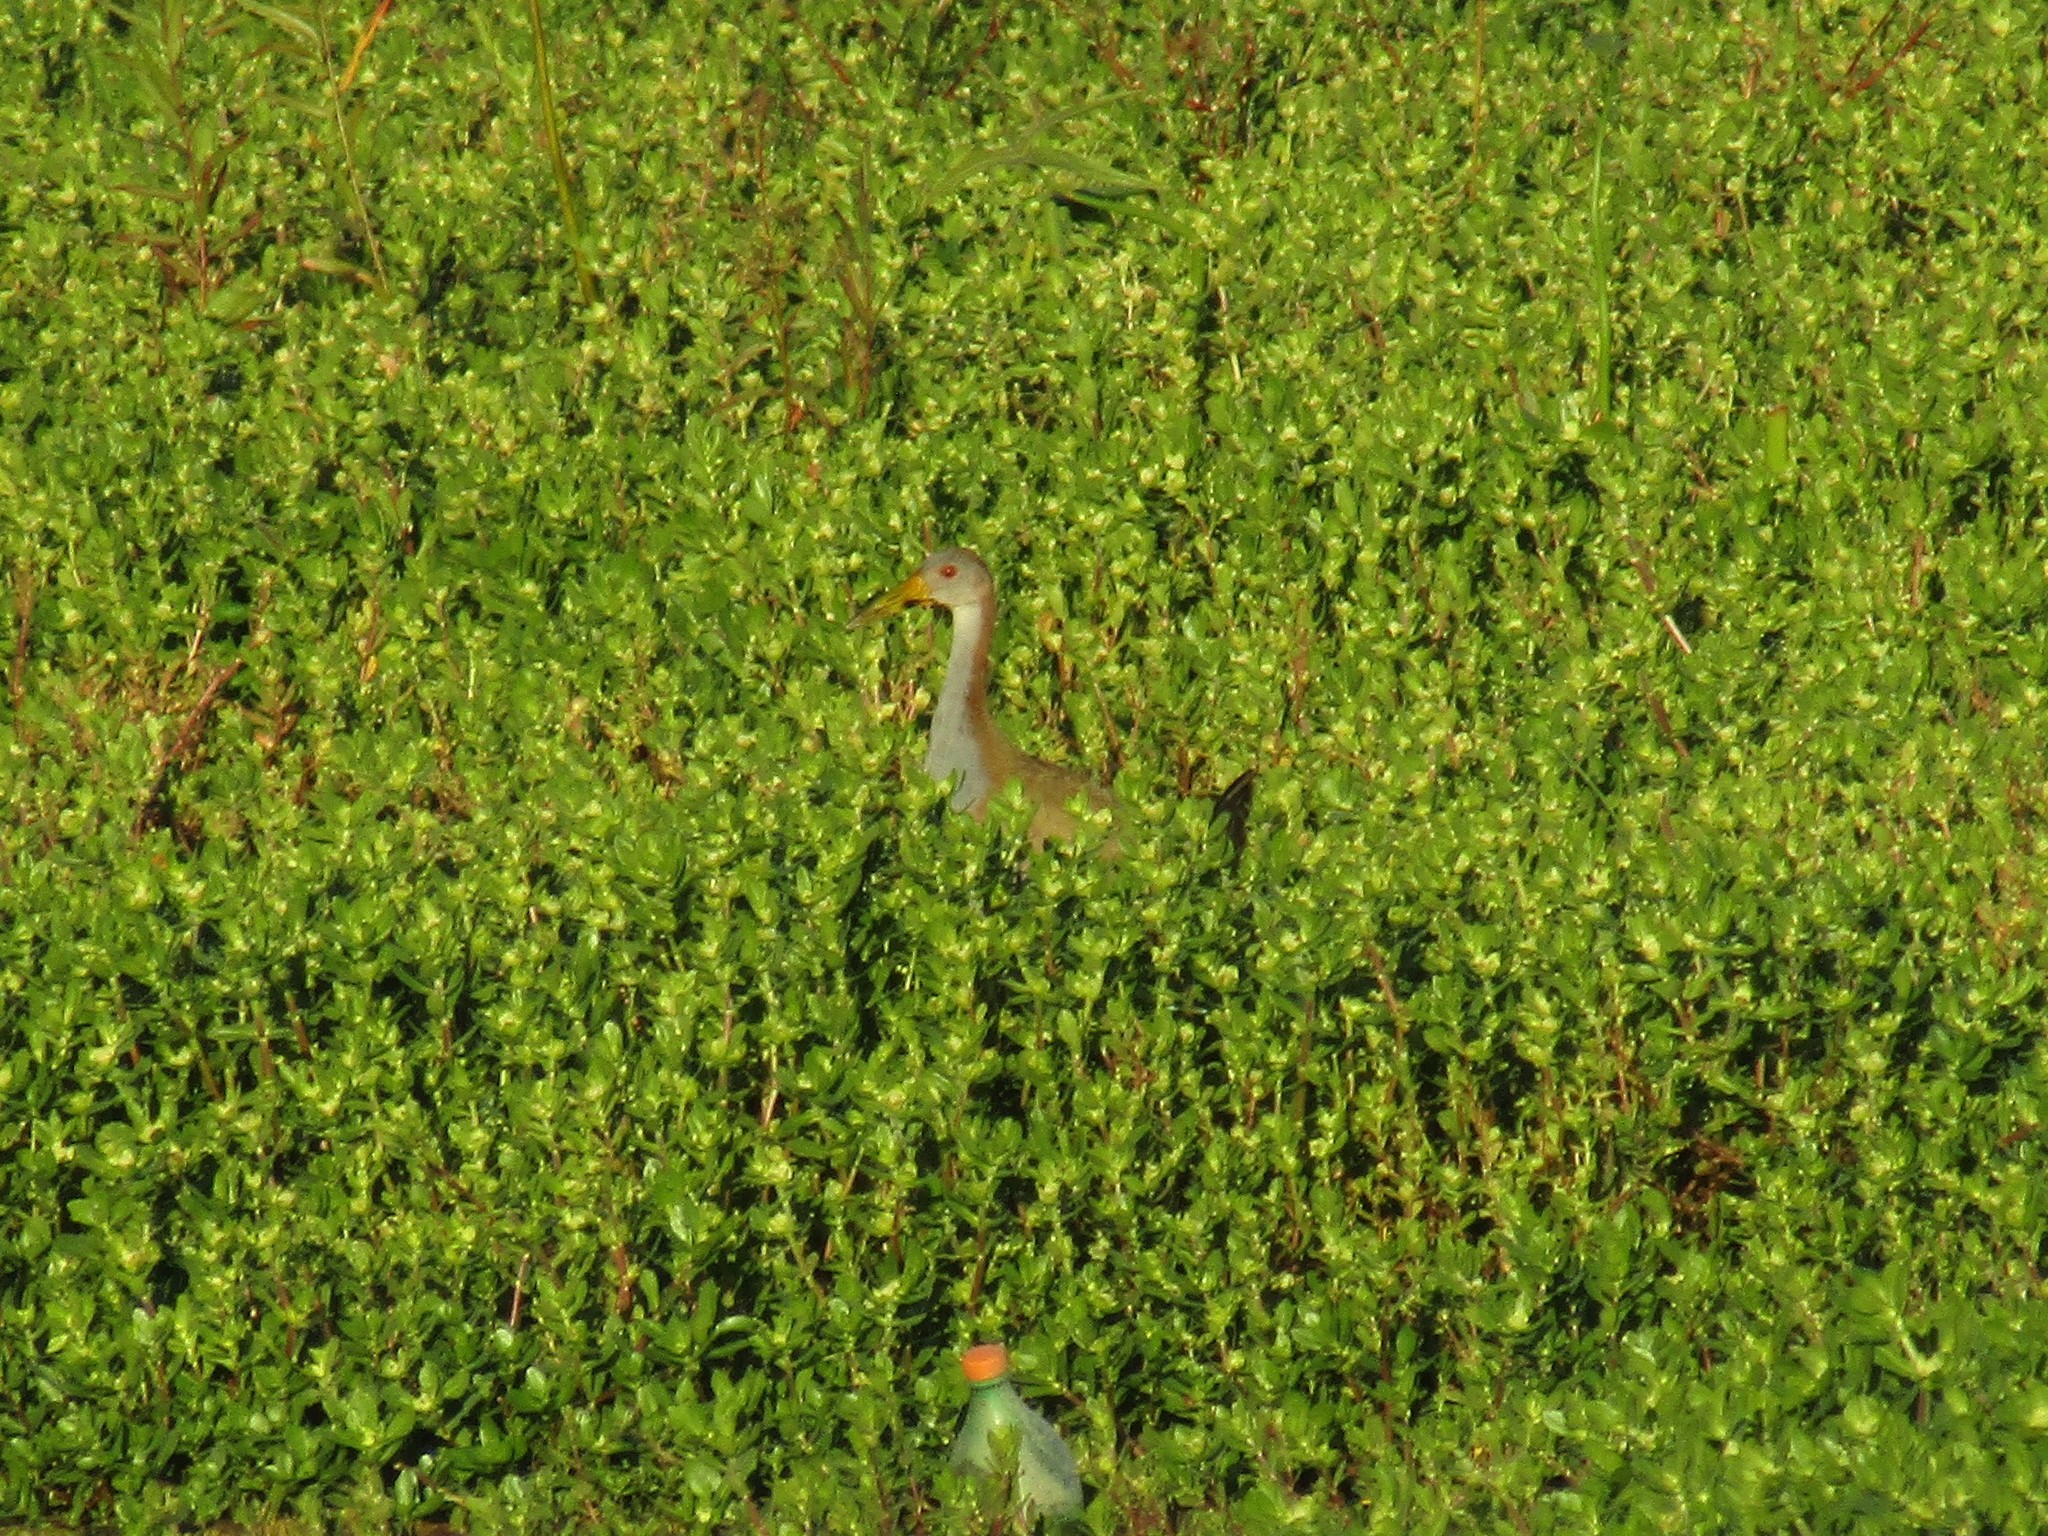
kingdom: Animalia
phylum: Chordata
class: Aves
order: Gruiformes
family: Rallidae
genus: Aramides
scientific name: Aramides ypecaha
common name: Giant wood rail
